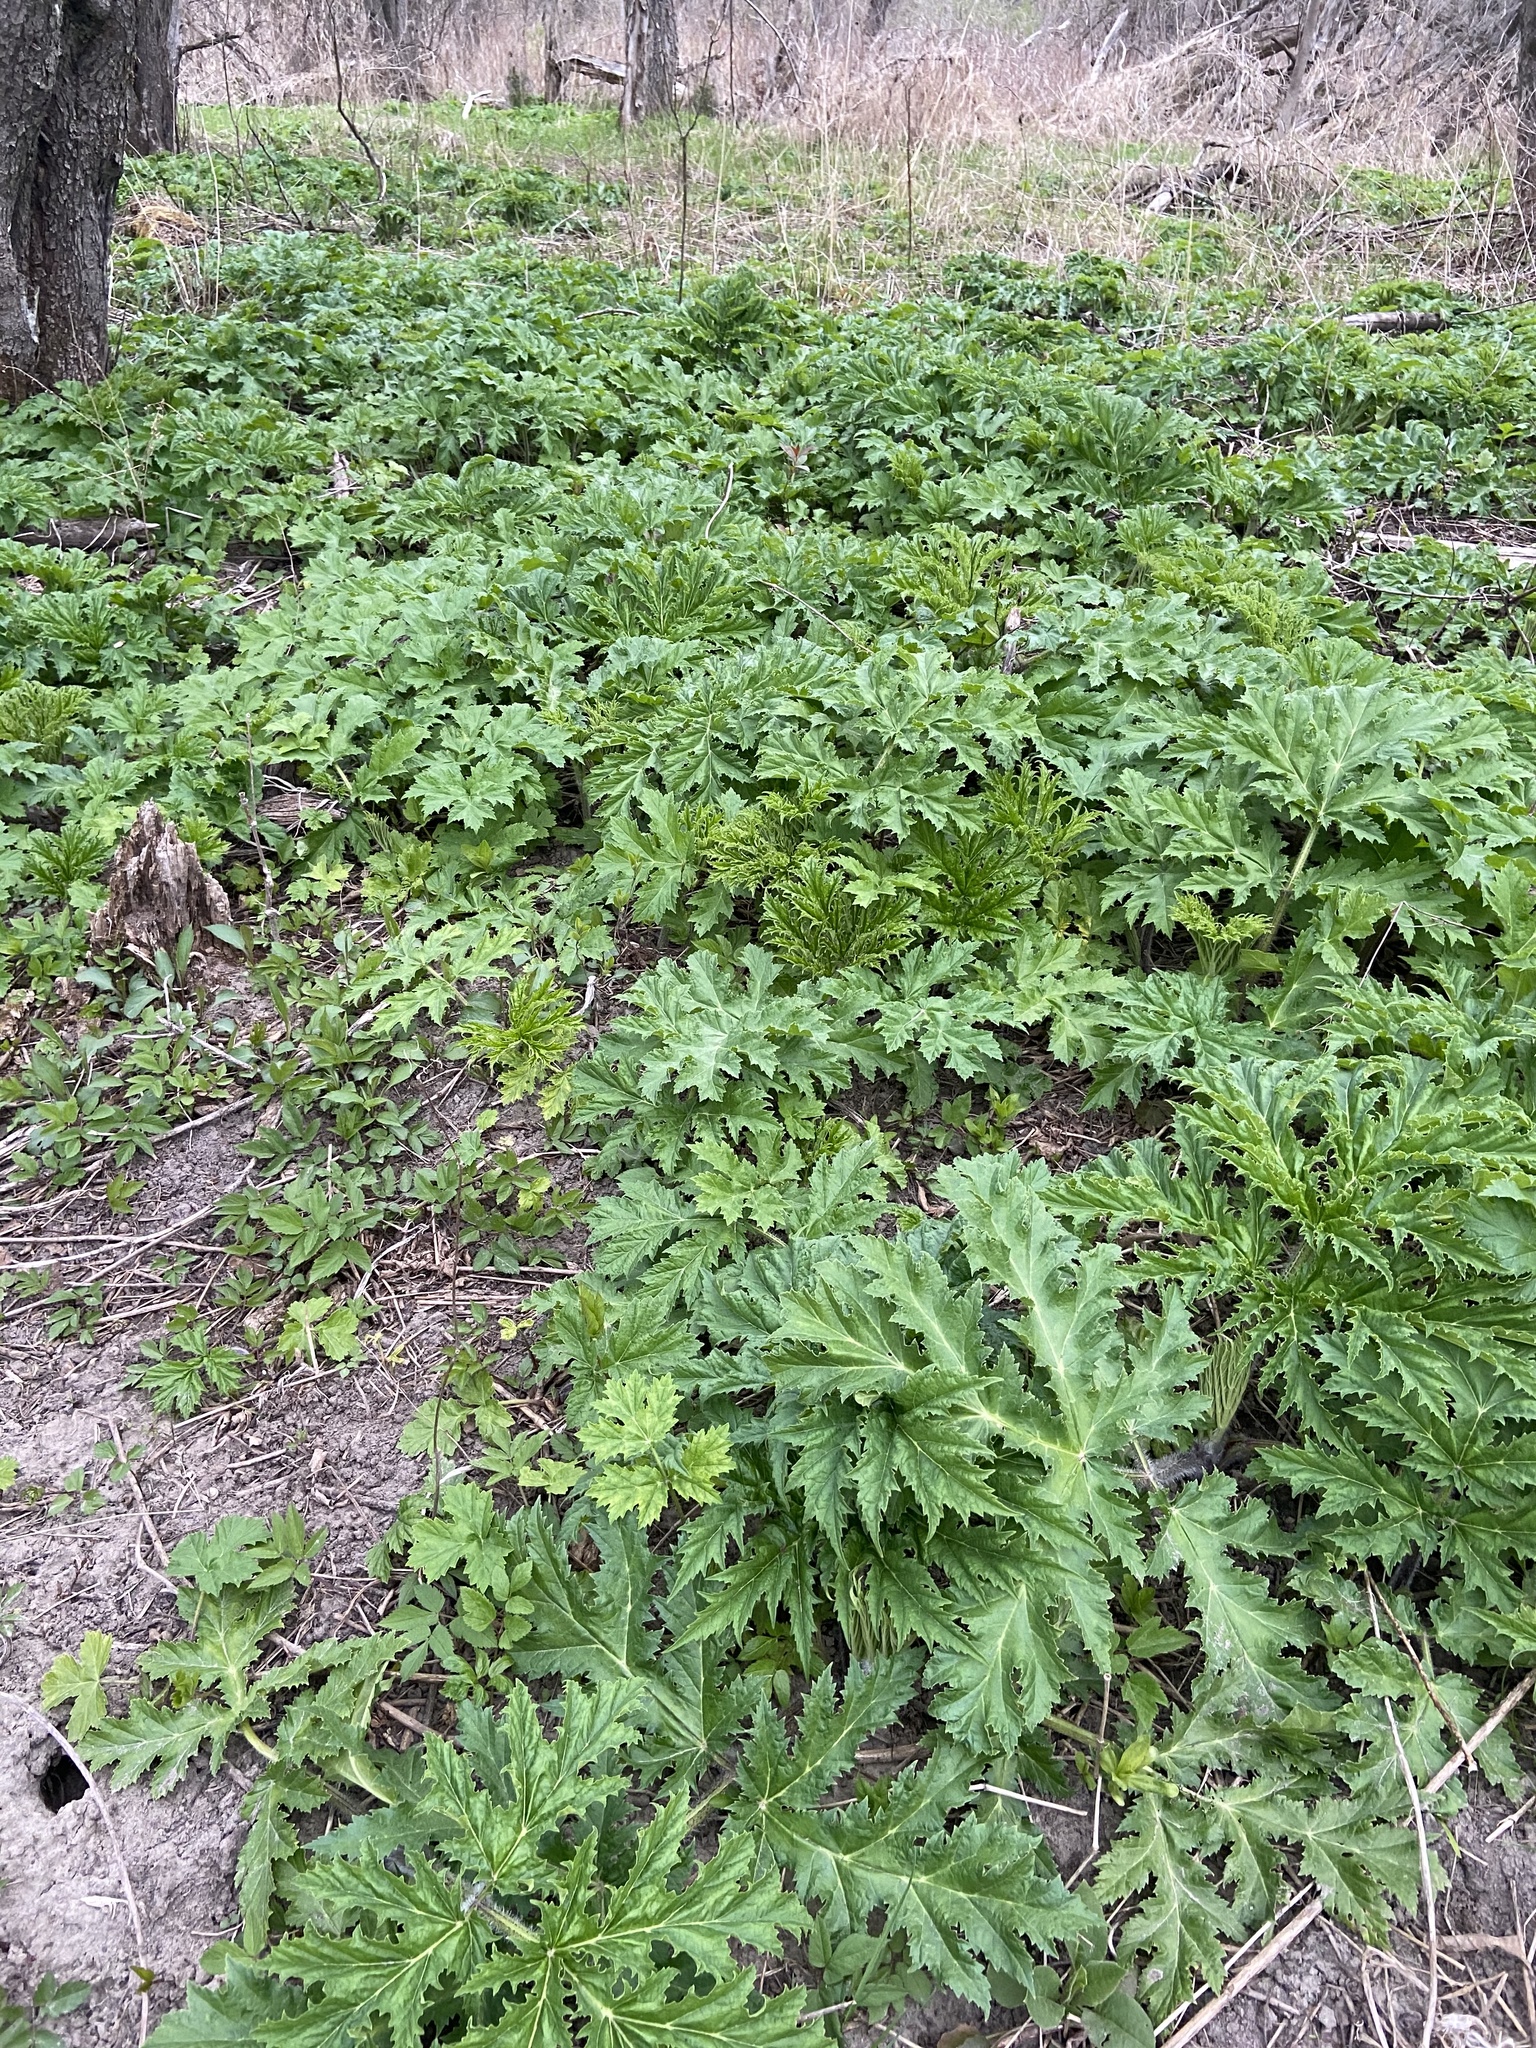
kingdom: Plantae
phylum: Tracheophyta
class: Magnoliopsida
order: Apiales
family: Apiaceae
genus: Heracleum
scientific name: Heracleum mantegazzianum
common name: Giant hogweed
